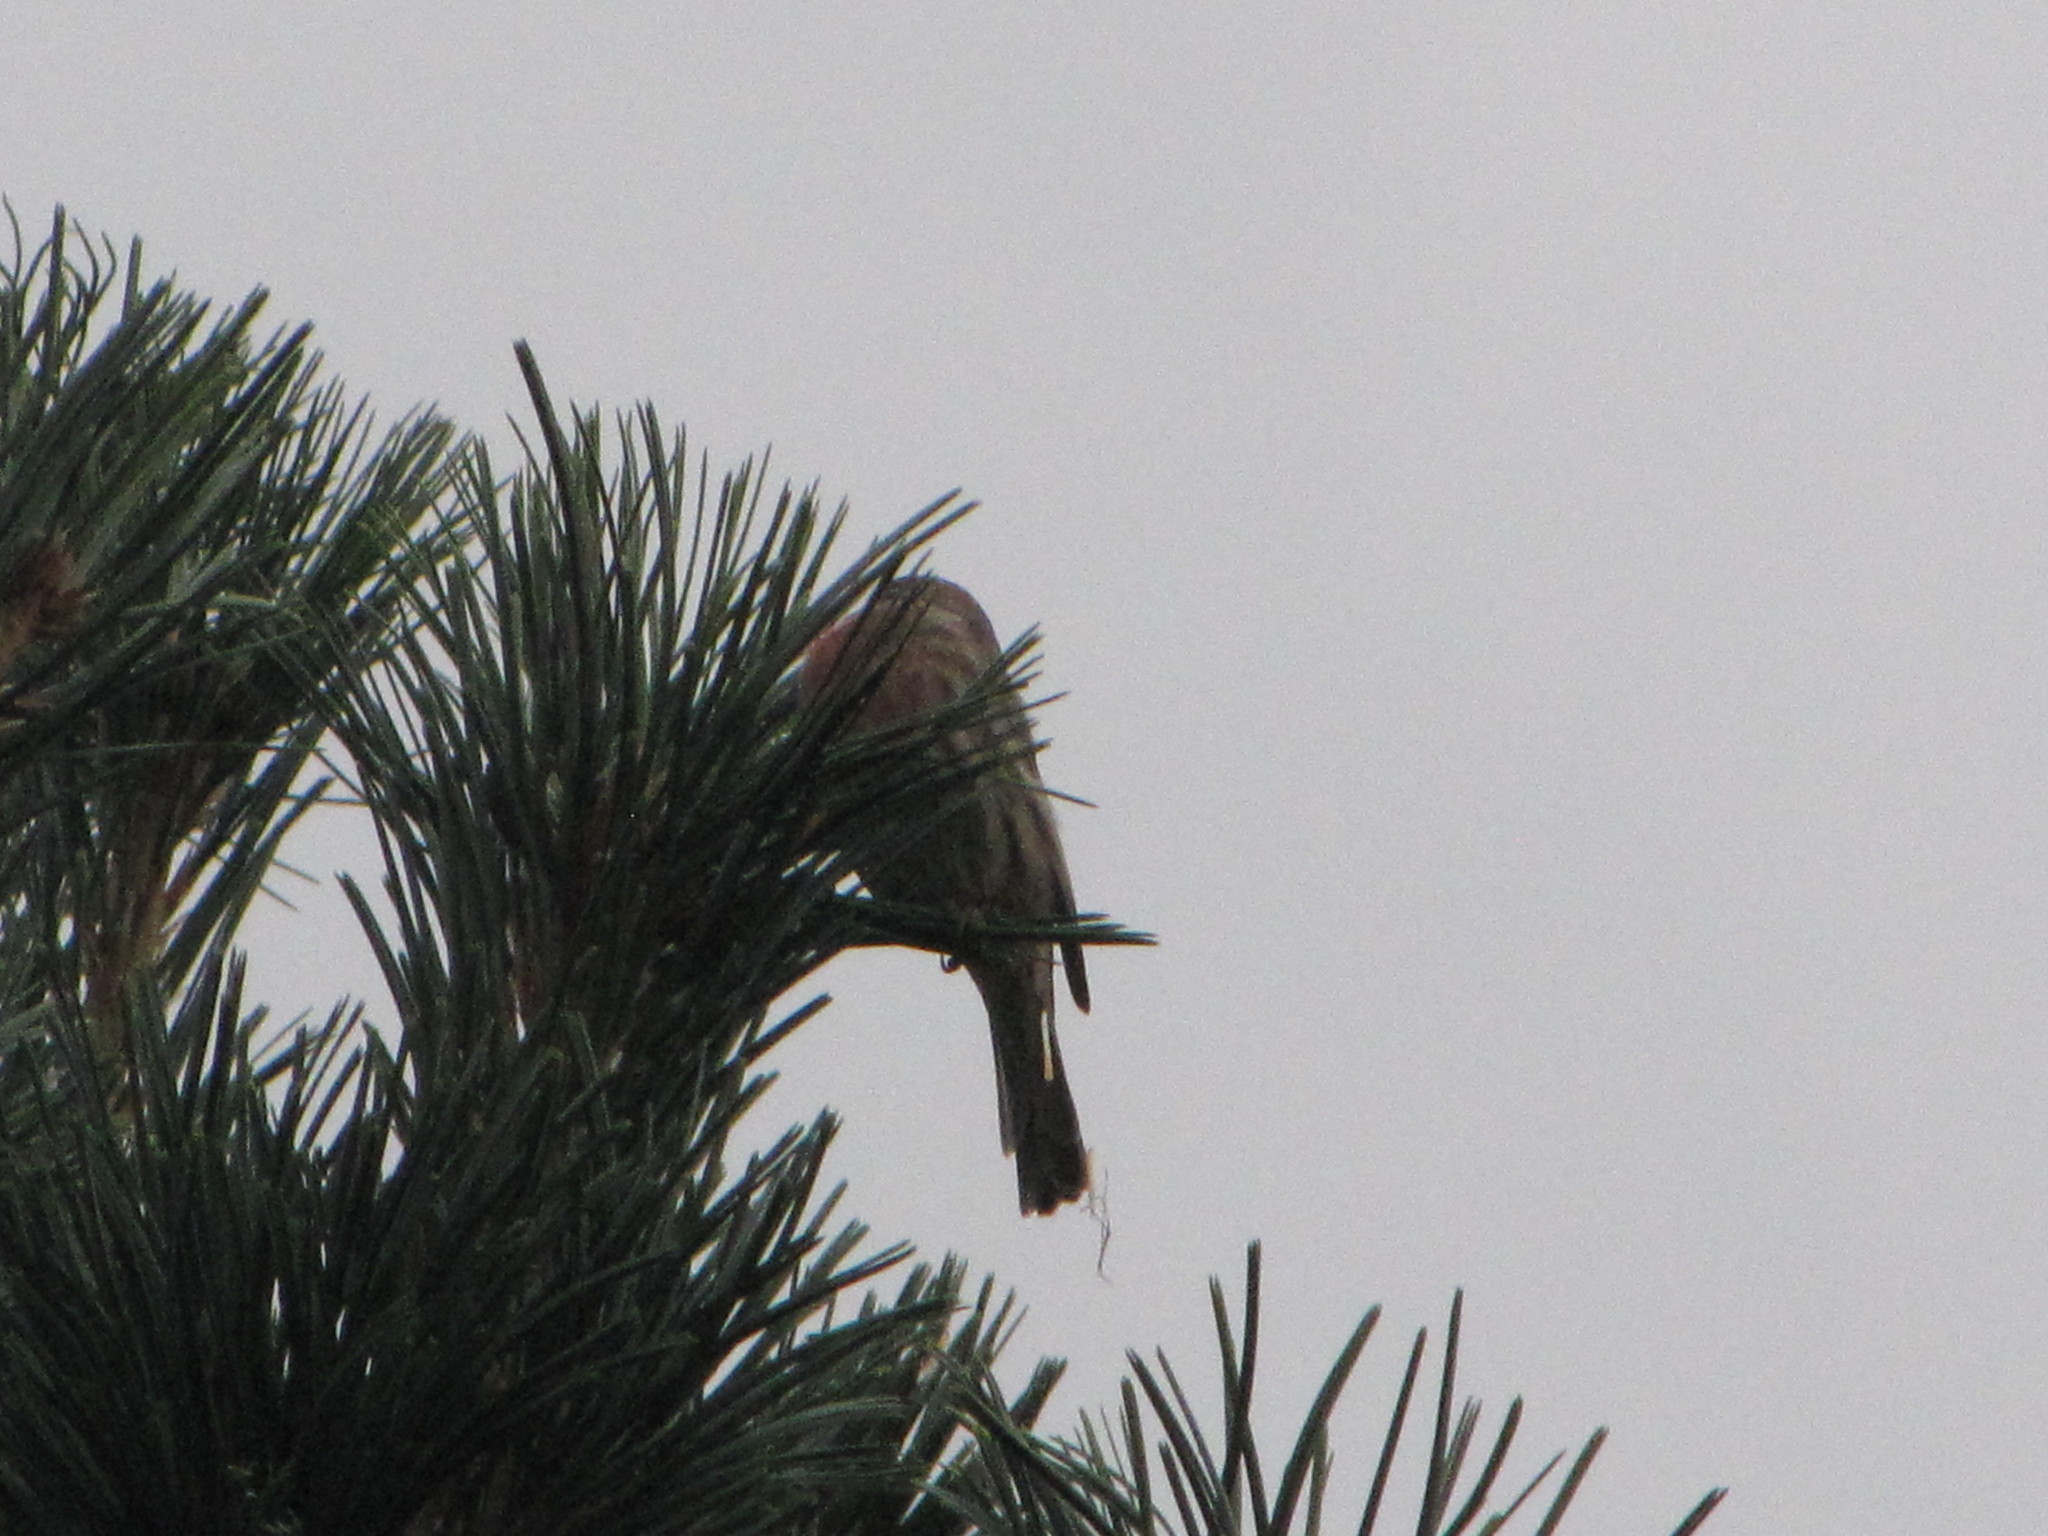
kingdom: Animalia
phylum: Chordata
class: Aves
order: Passeriformes
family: Fringillidae
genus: Haemorhous
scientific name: Haemorhous mexicanus
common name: House finch
